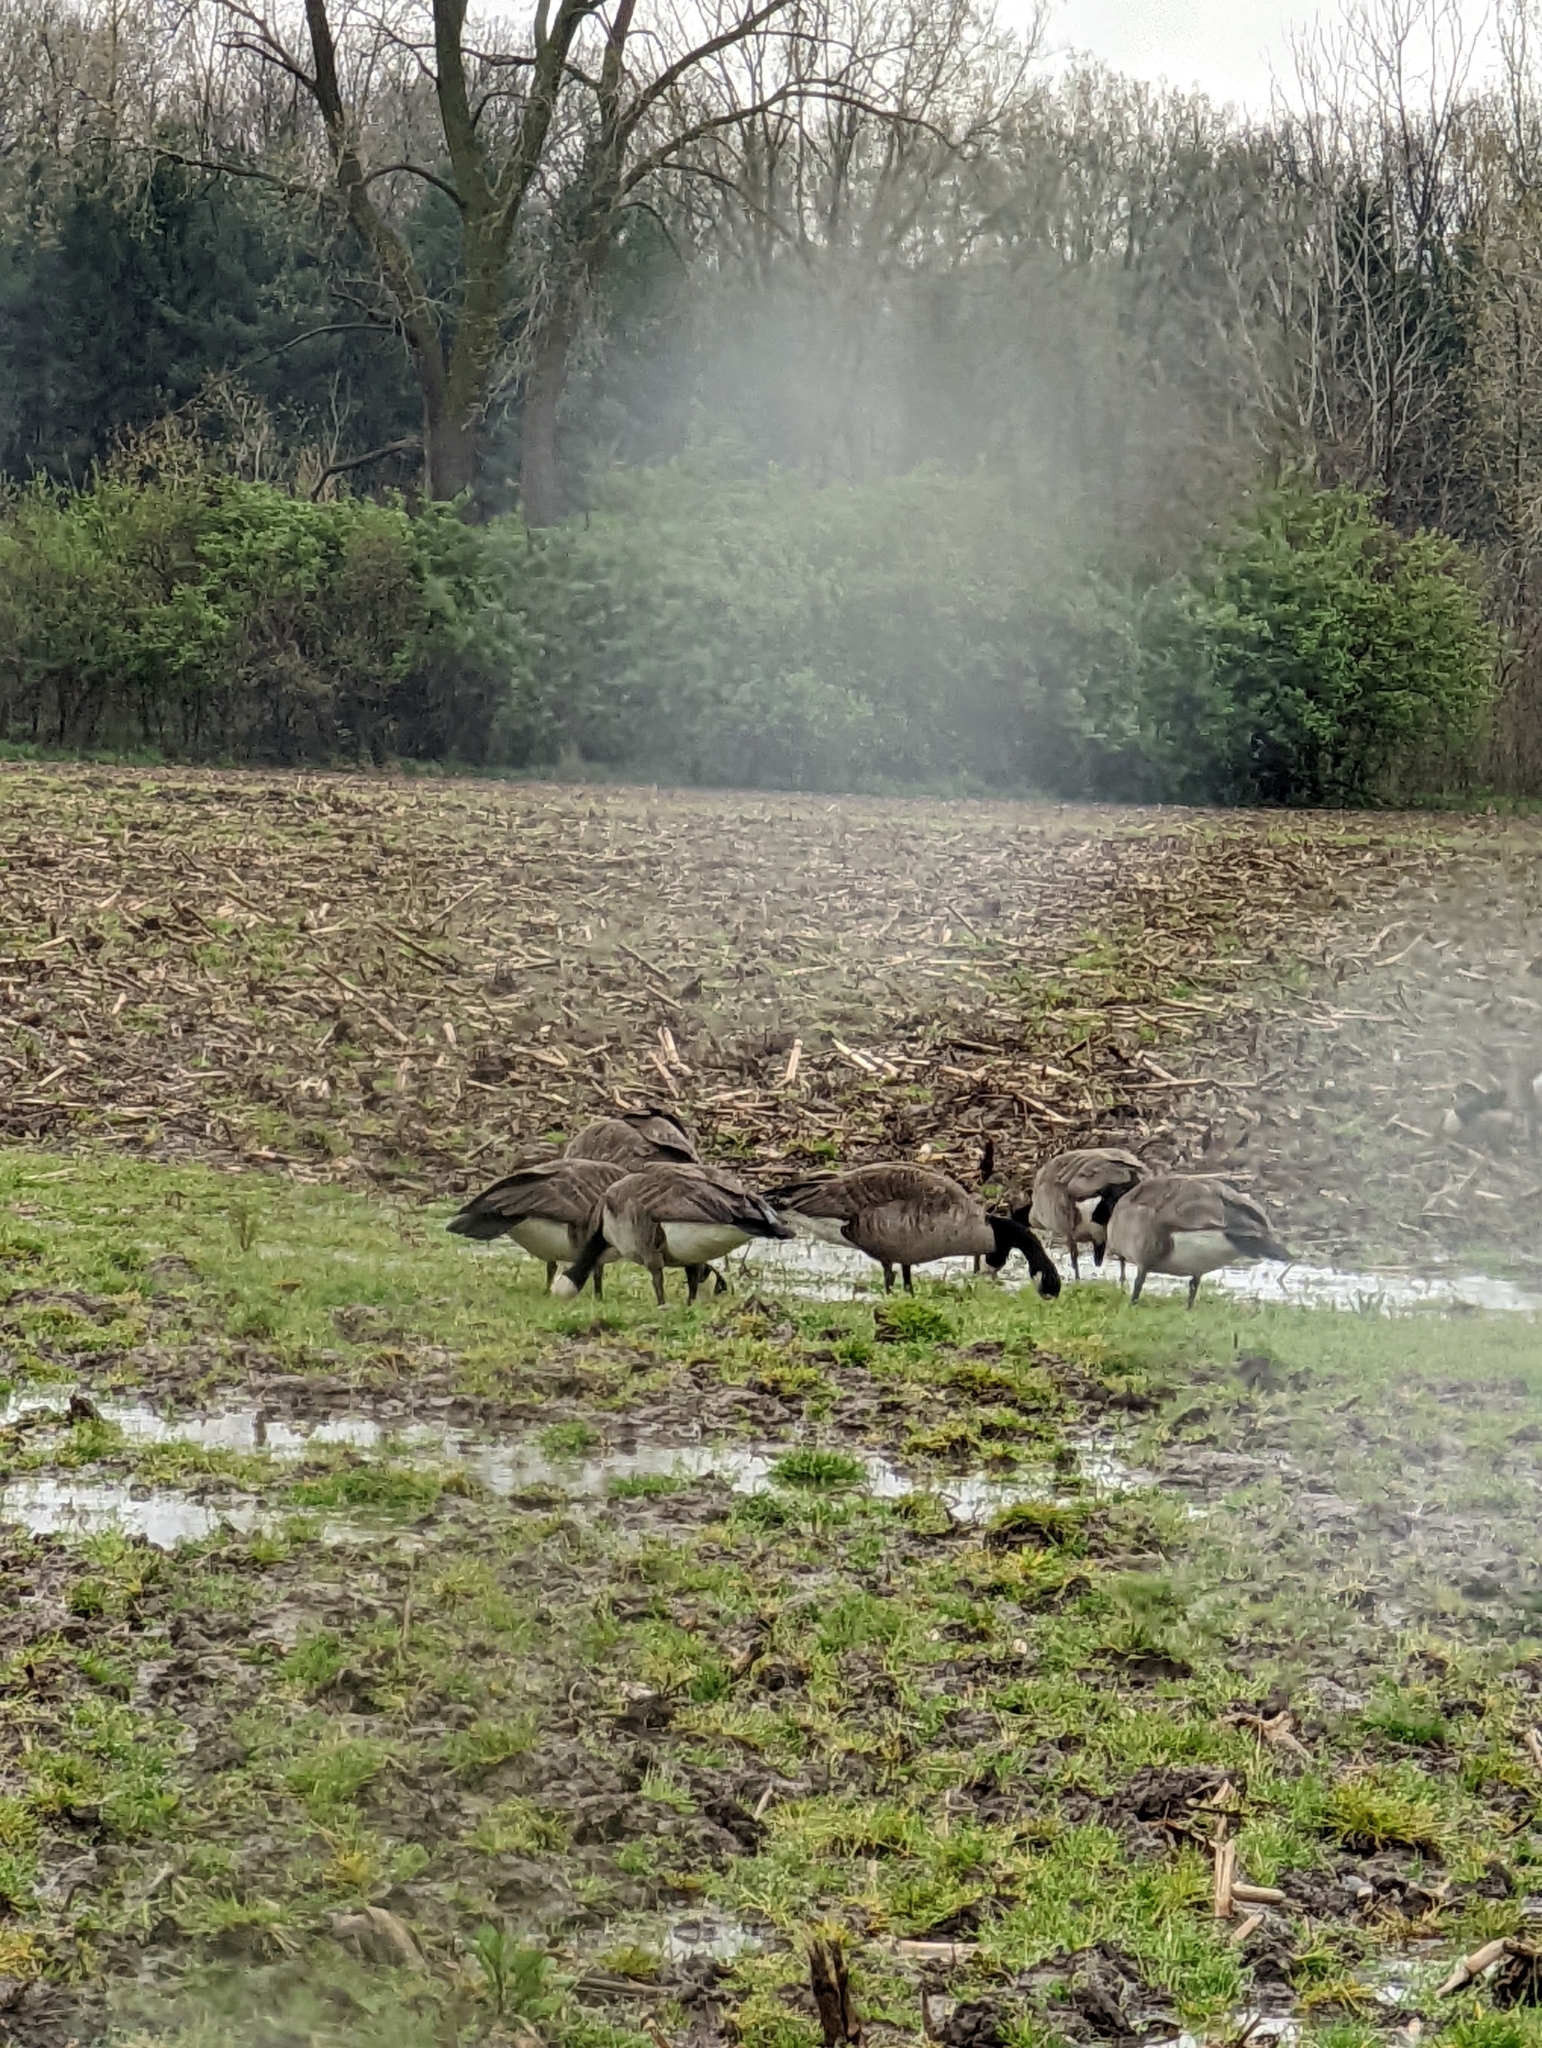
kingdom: Animalia
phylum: Chordata
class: Aves
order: Anseriformes
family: Anatidae
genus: Branta
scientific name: Branta canadensis
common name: Canada goose
